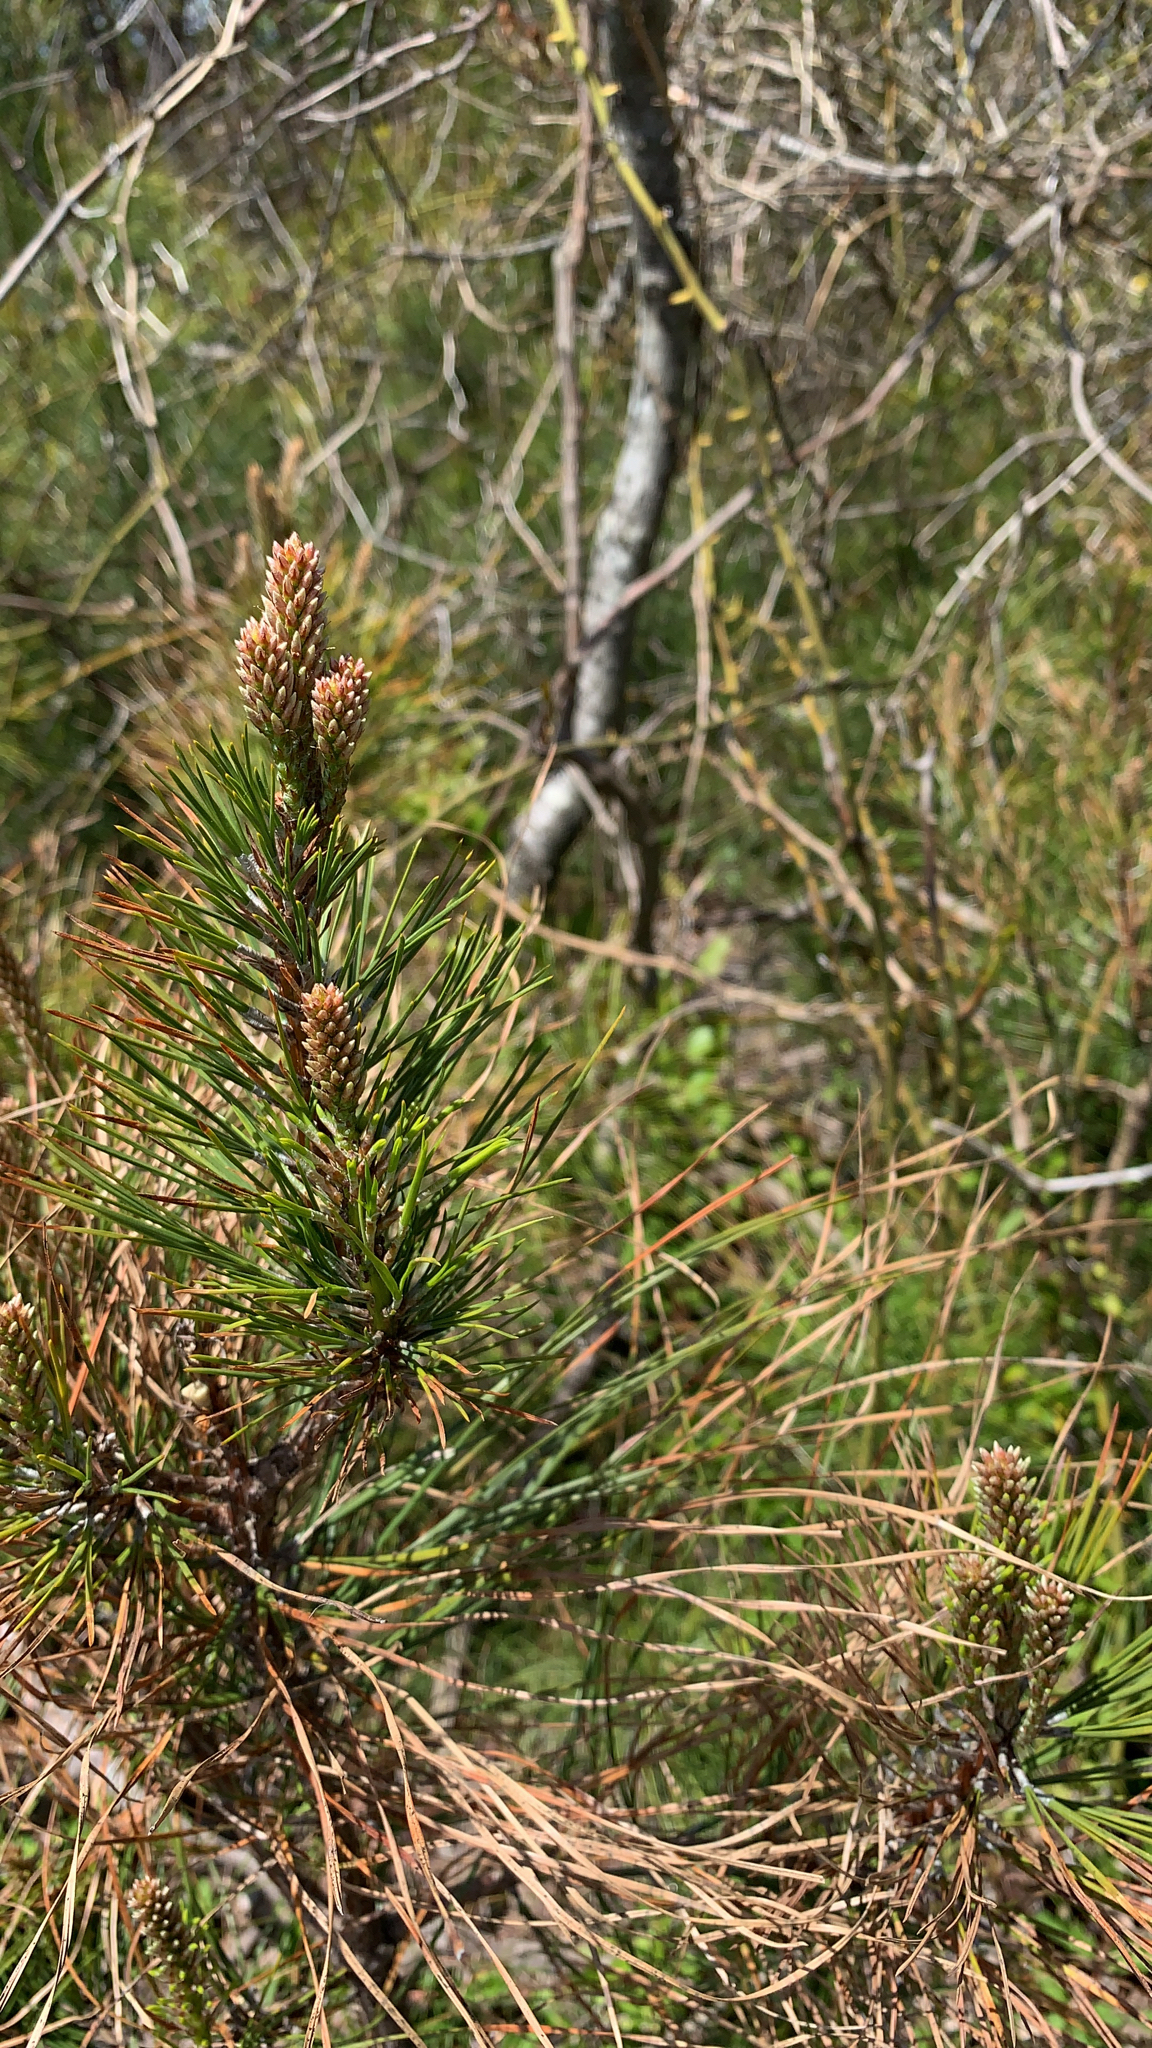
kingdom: Plantae
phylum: Tracheophyta
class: Pinopsida
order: Pinales
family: Pinaceae
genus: Pinus
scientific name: Pinus
